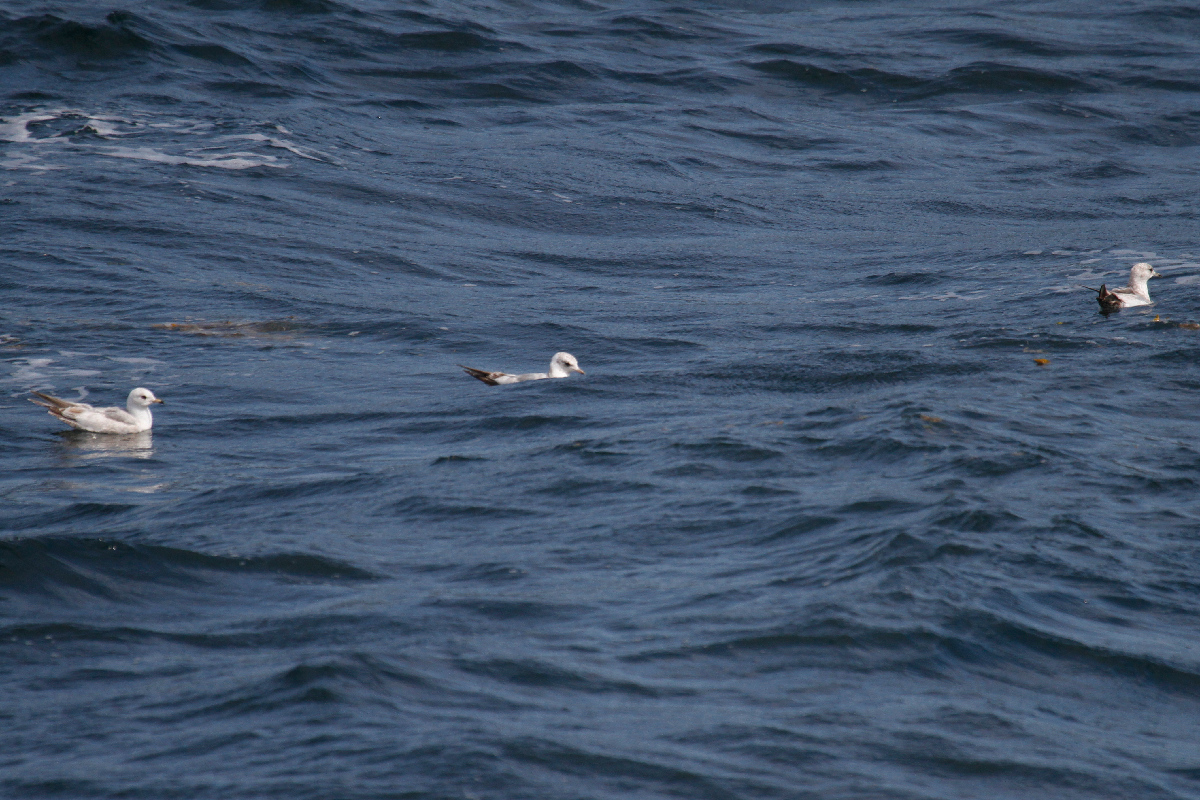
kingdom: Animalia
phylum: Chordata
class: Aves
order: Charadriiformes
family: Laridae
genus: Larus
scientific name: Larus brachyrhynchus
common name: Short-billed gull
